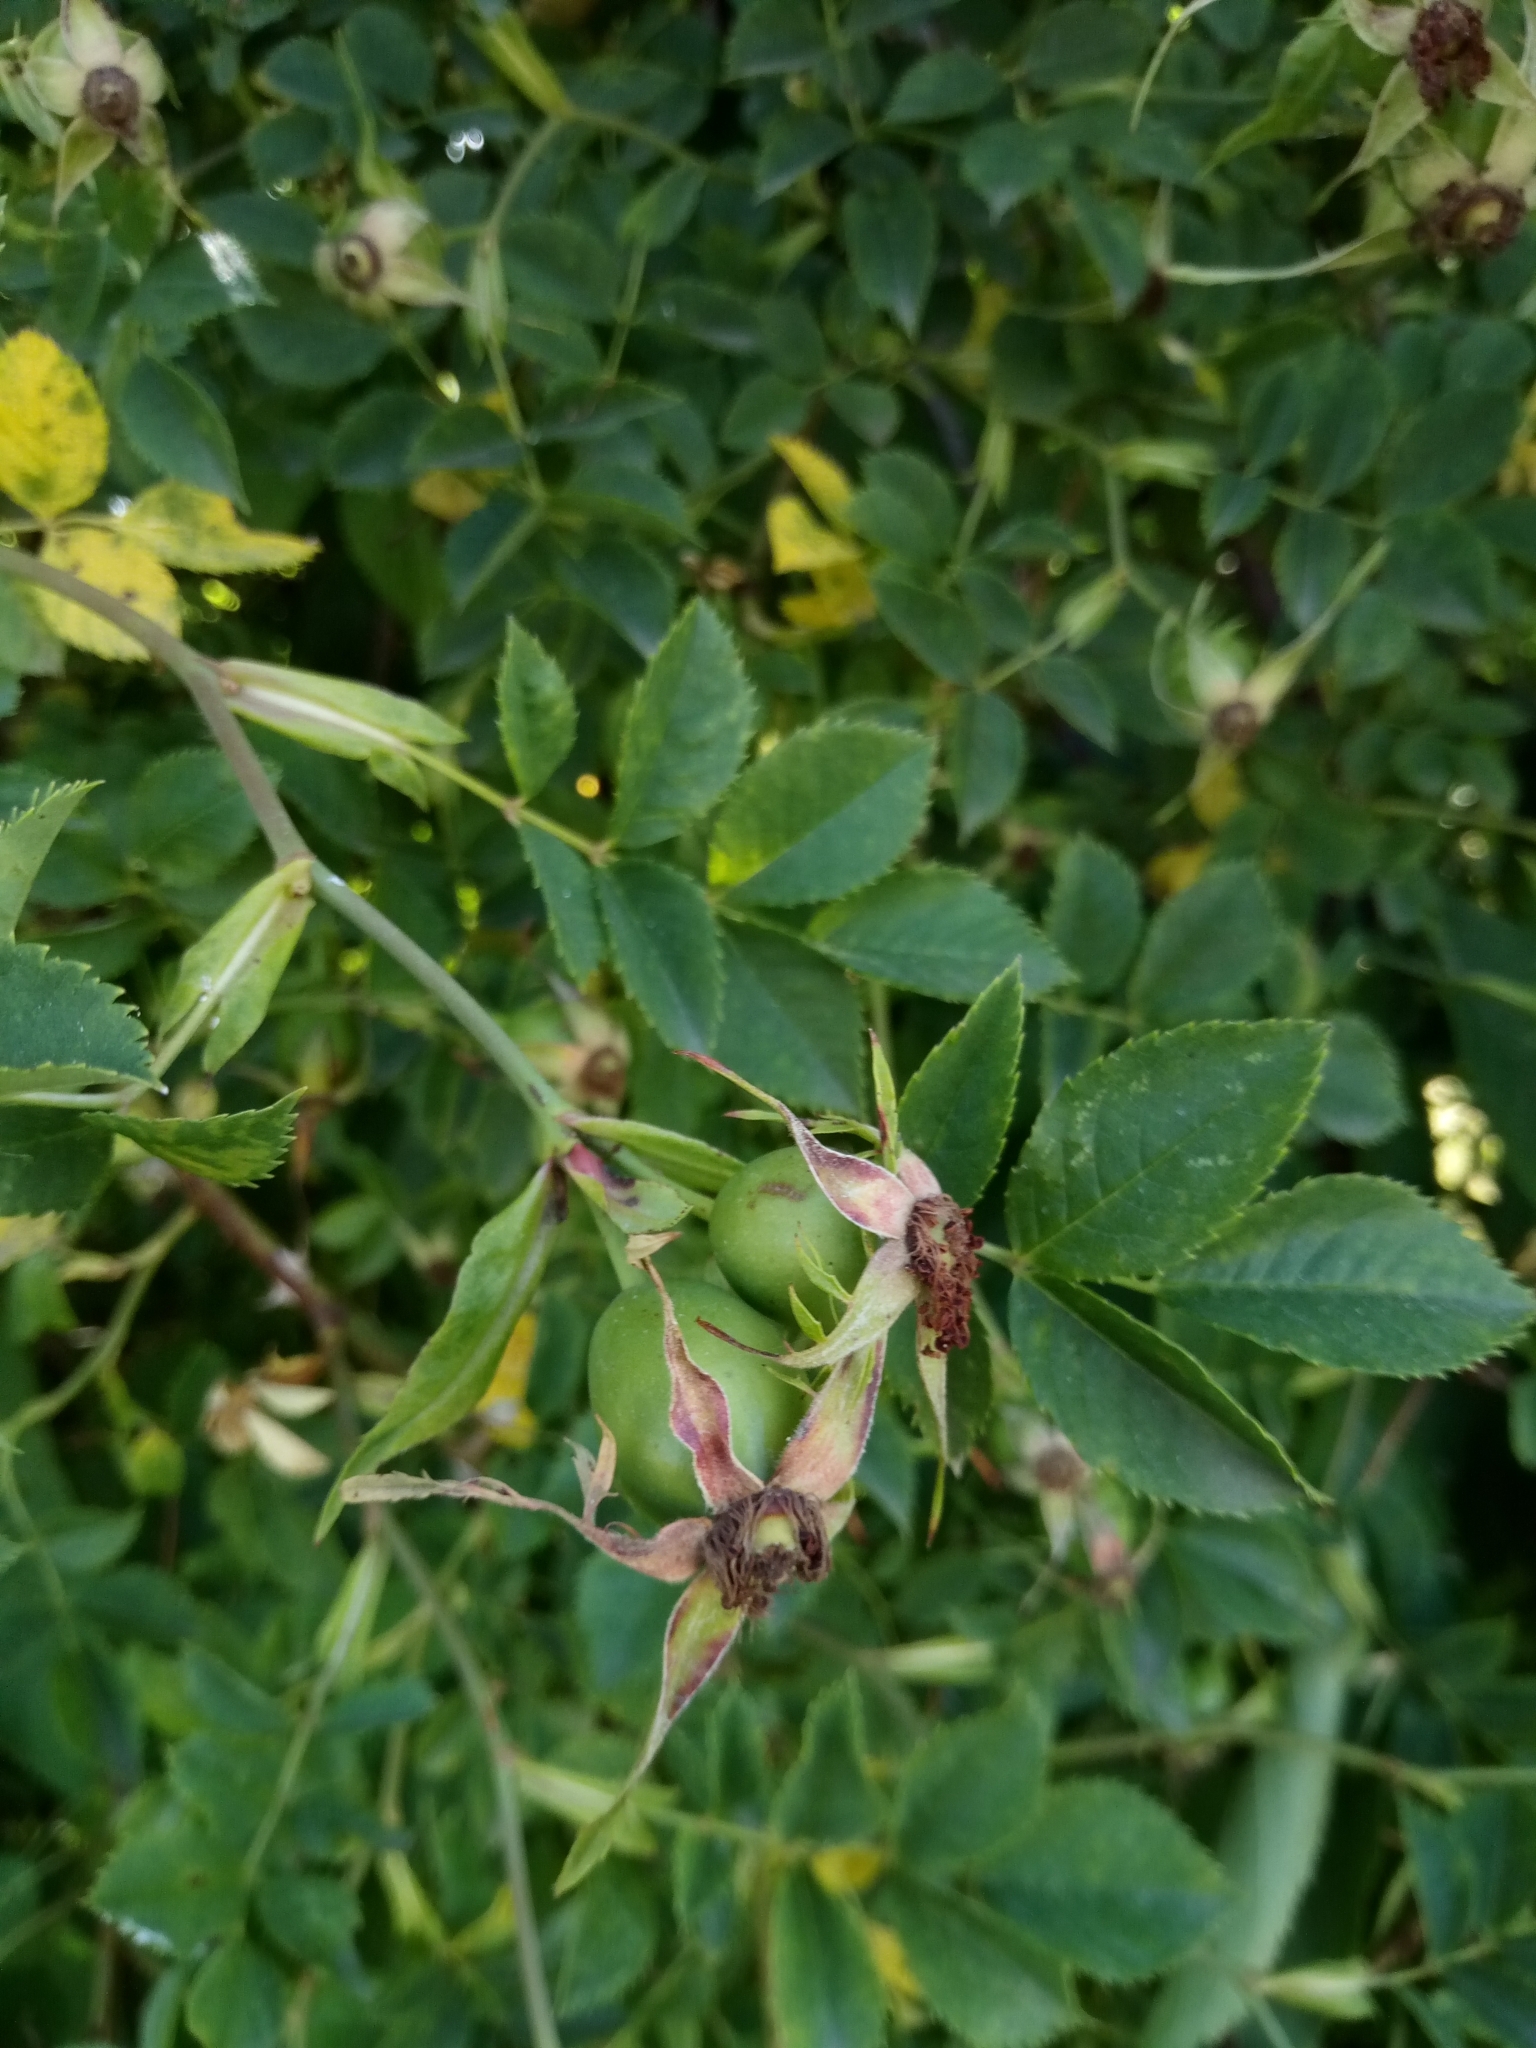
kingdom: Plantae
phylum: Tracheophyta
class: Magnoliopsida
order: Rosales
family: Rosaceae
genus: Rosa
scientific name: Rosa subcanina
